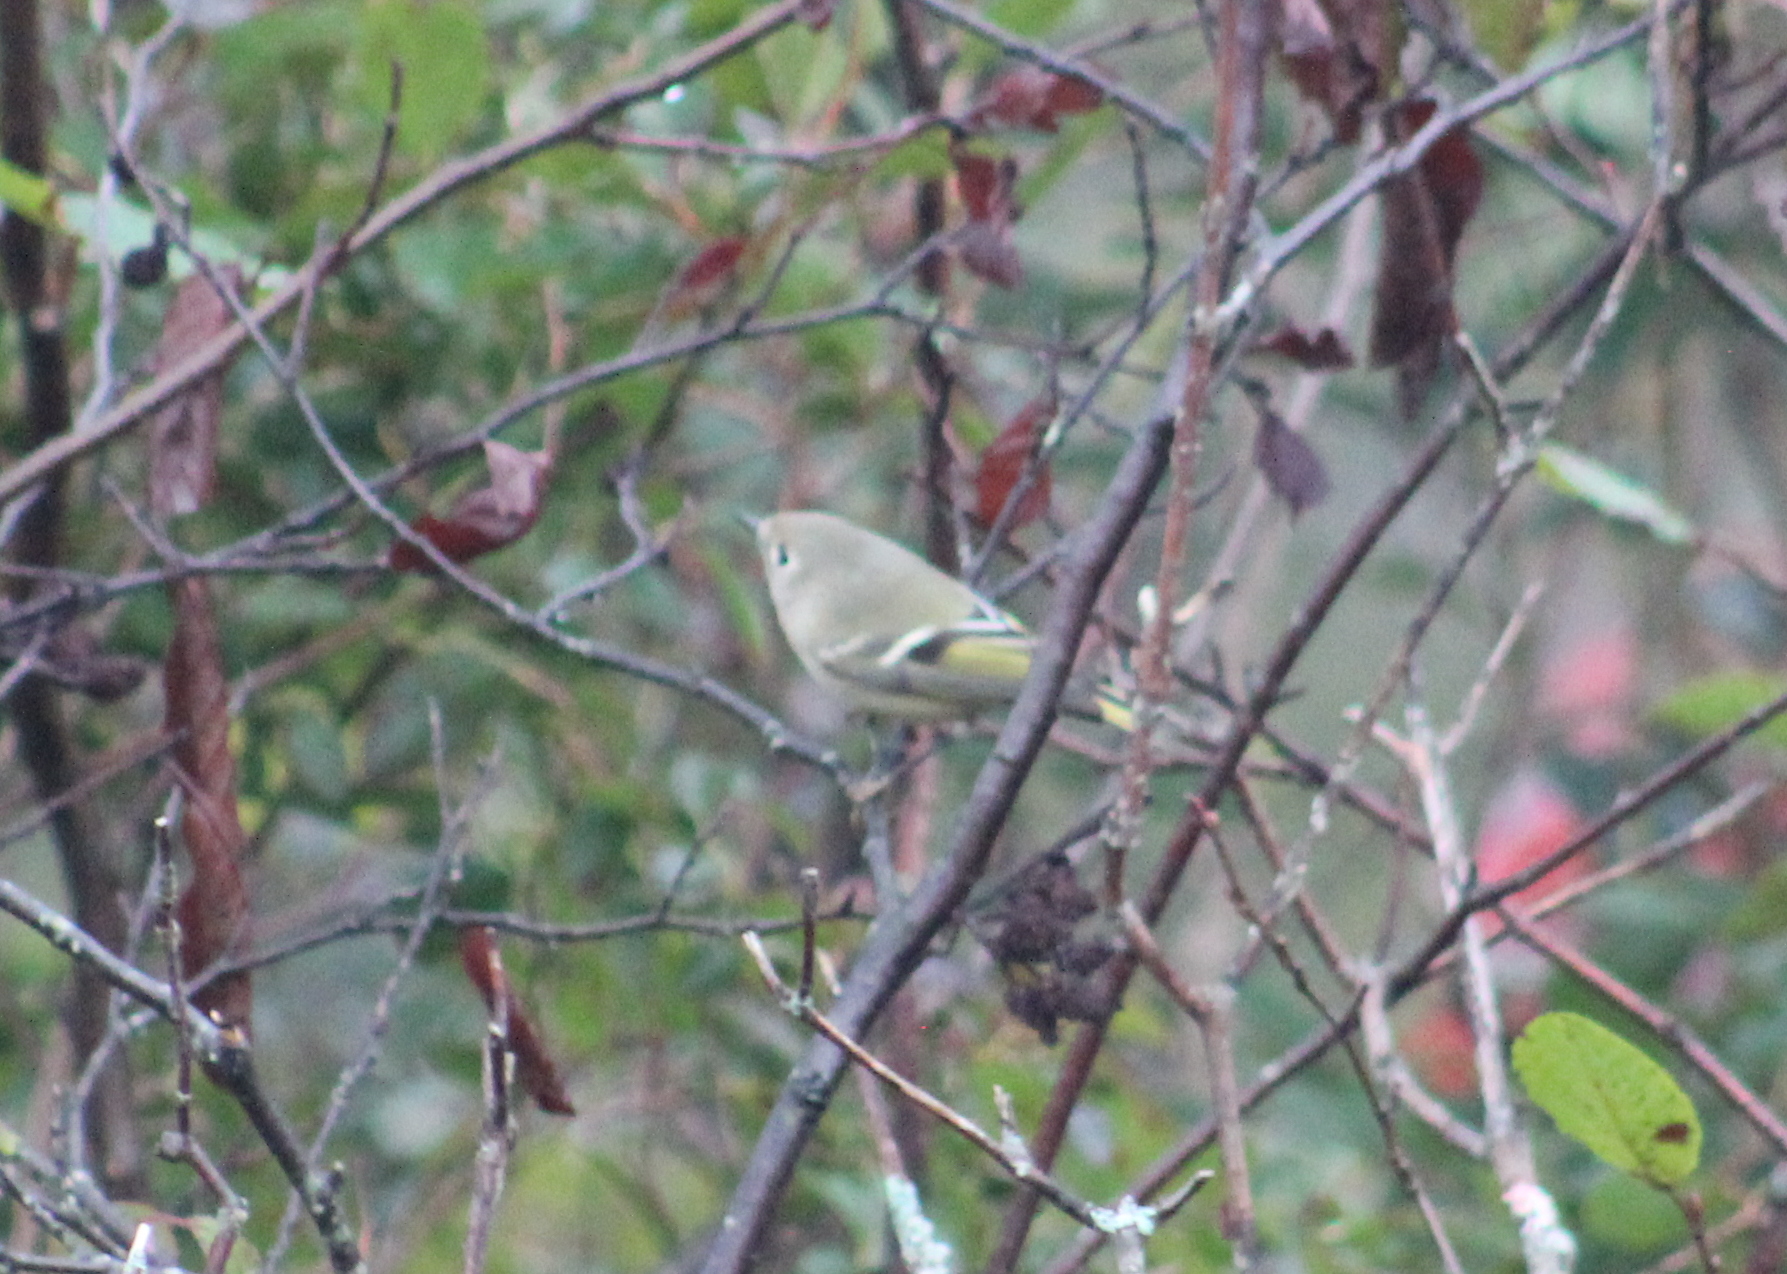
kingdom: Animalia
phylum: Chordata
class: Aves
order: Passeriformes
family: Regulidae
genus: Regulus
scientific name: Regulus calendula
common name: Ruby-crowned kinglet
